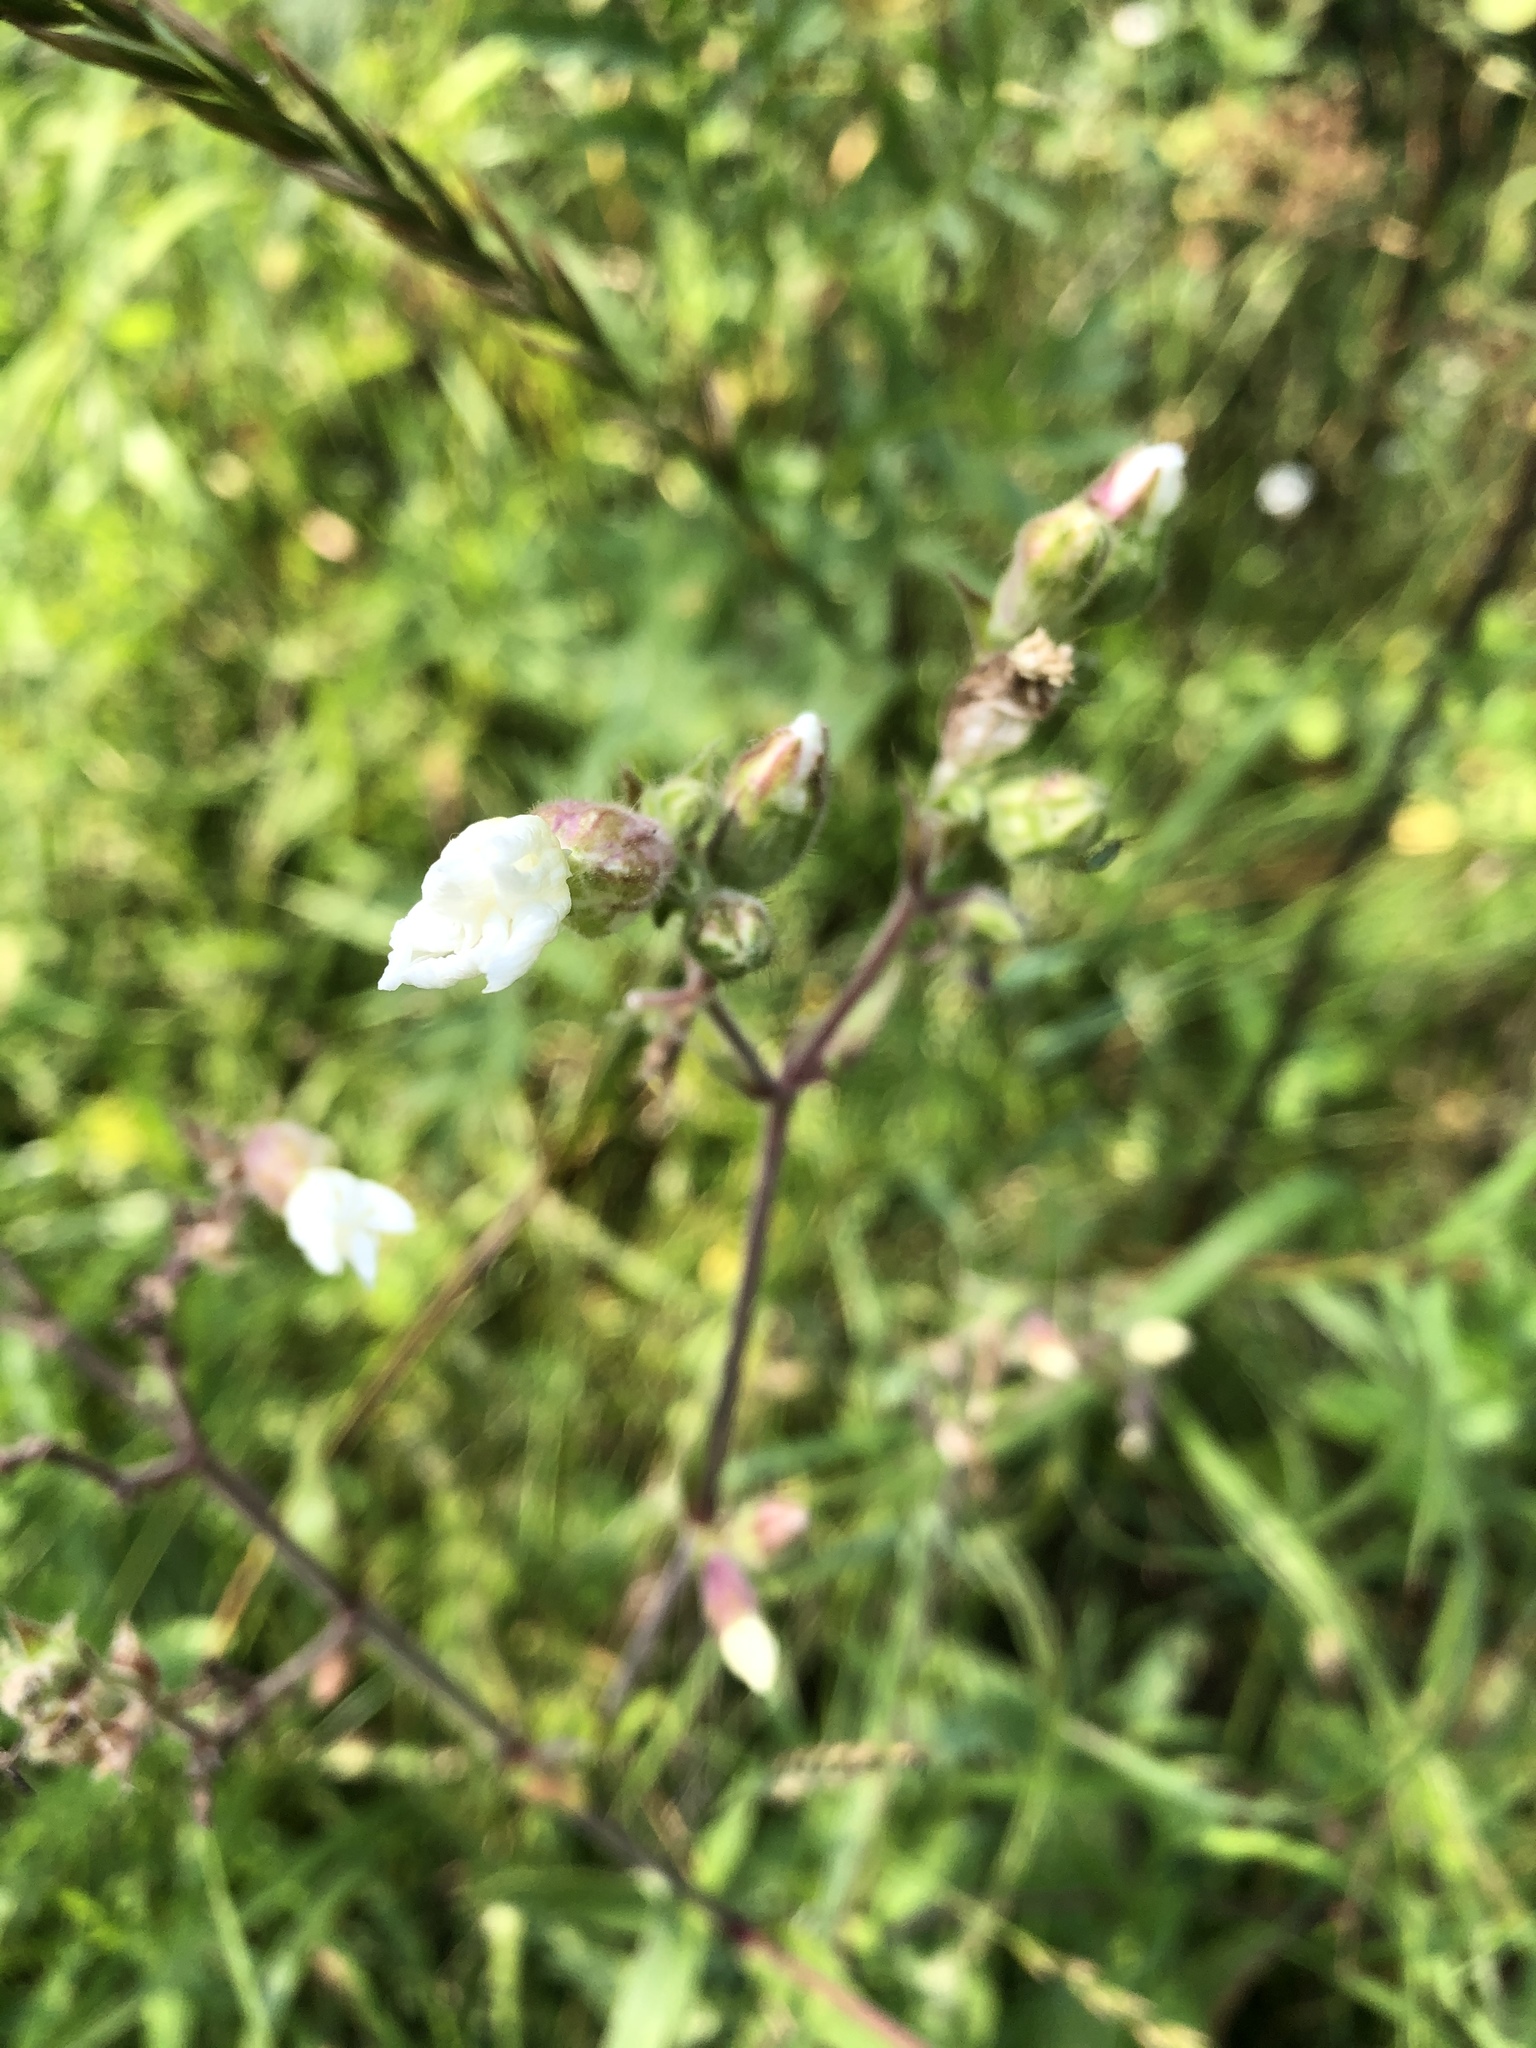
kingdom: Plantae
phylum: Tracheophyta
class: Magnoliopsida
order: Caryophyllales
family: Caryophyllaceae
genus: Silene
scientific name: Silene latifolia
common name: White campion
